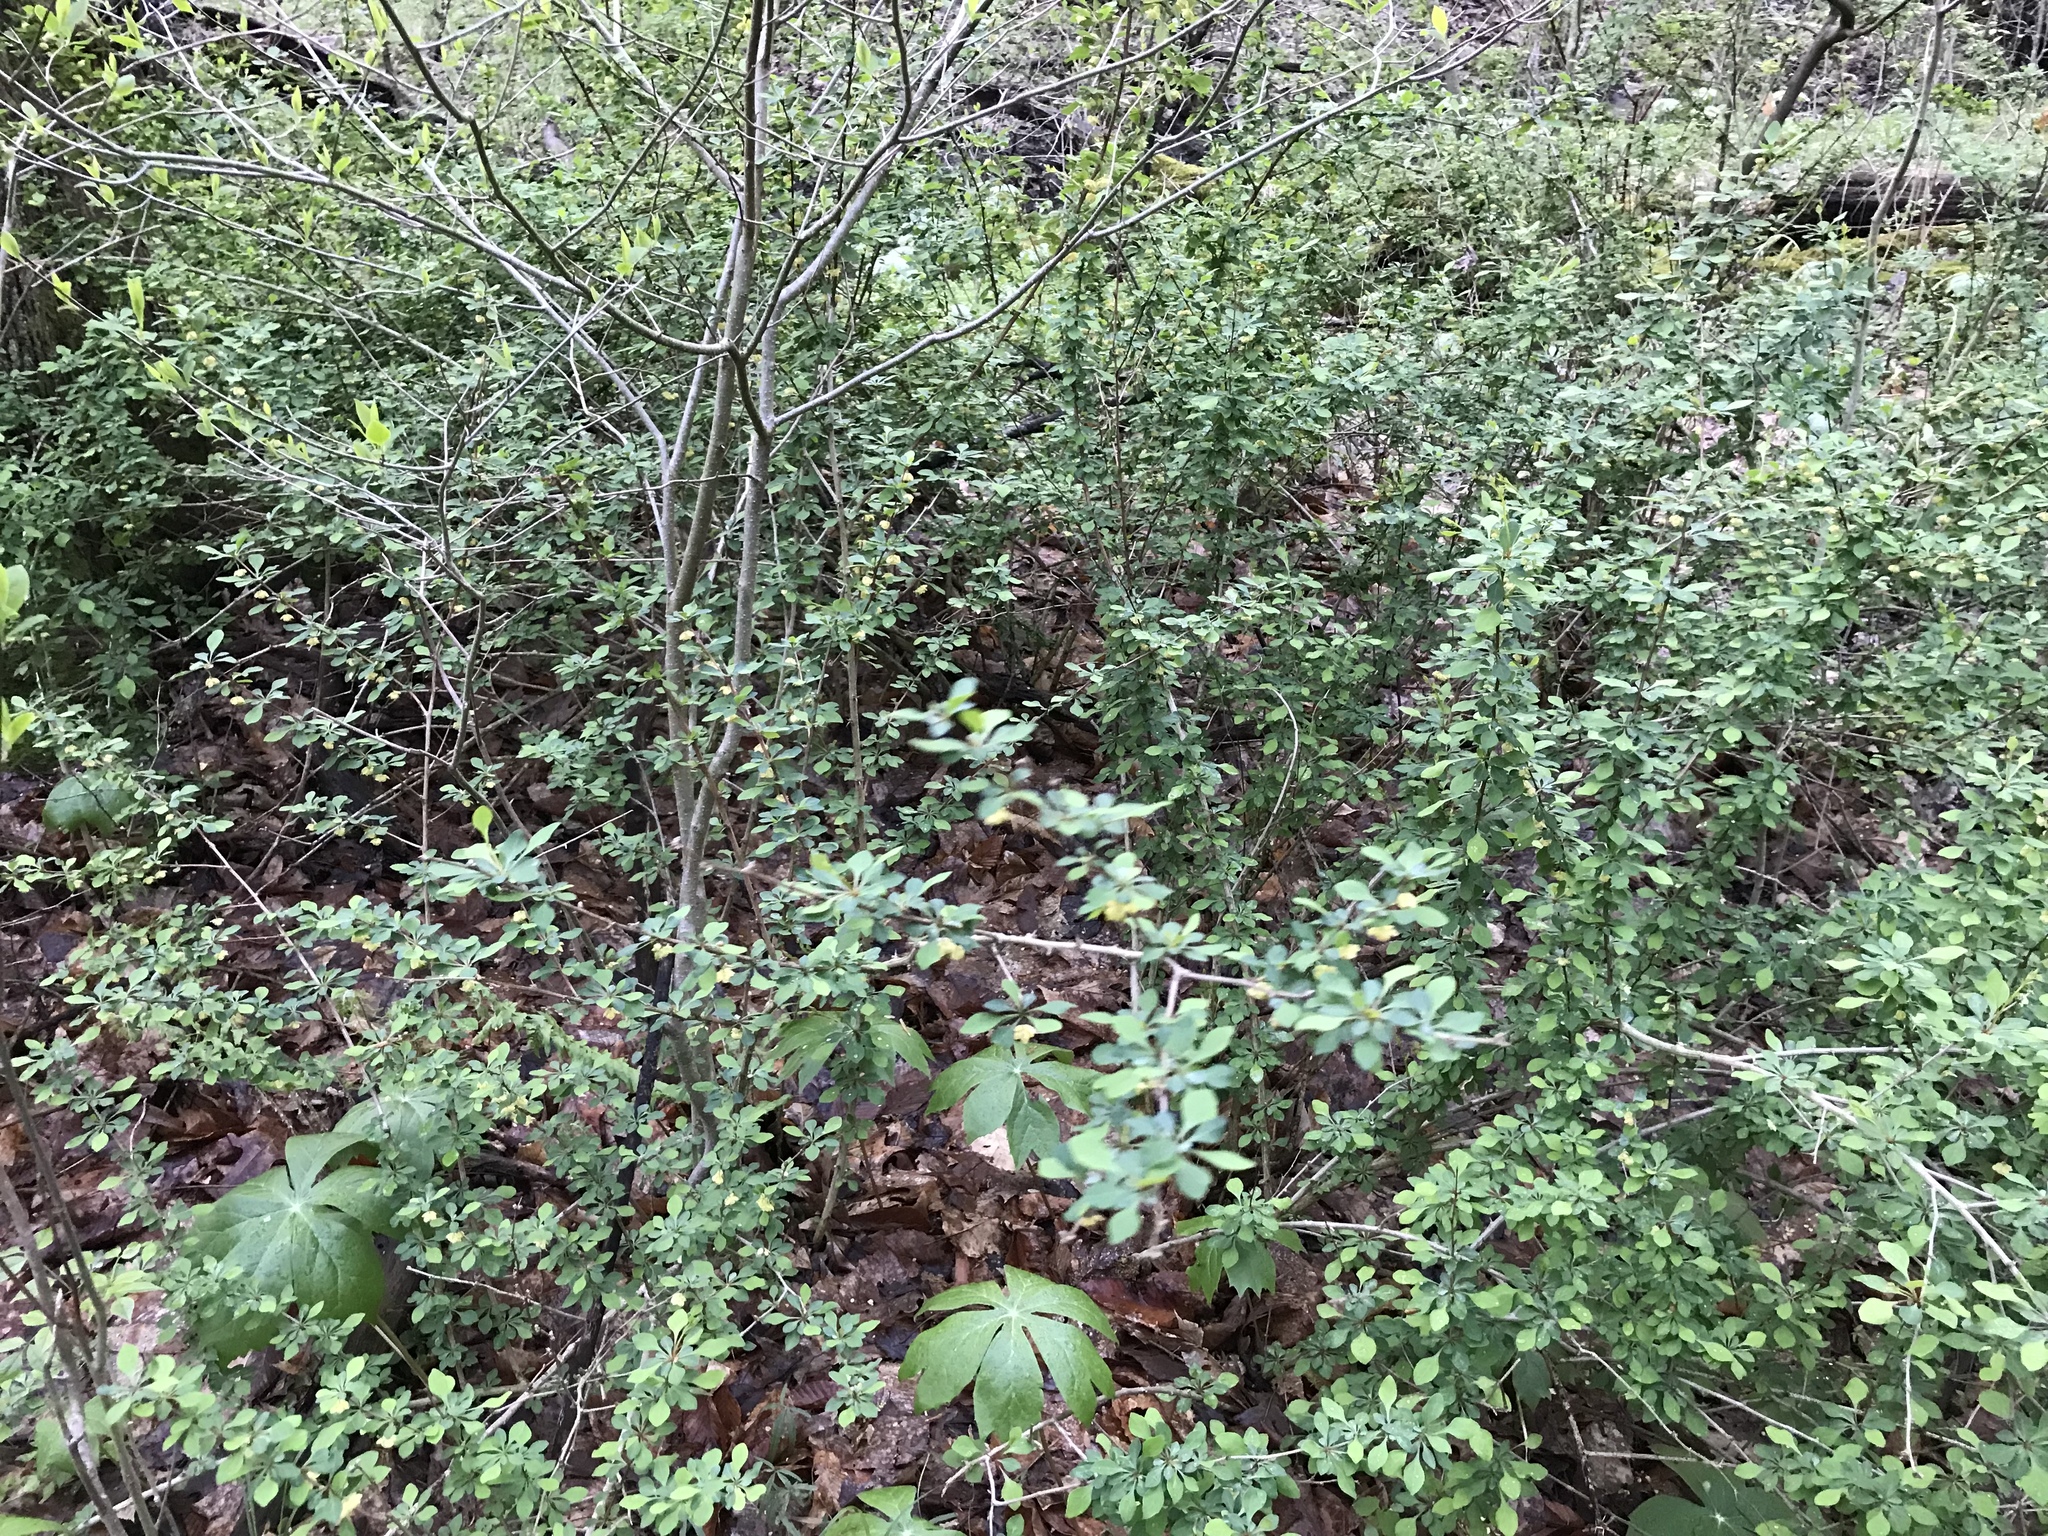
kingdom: Plantae
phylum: Tracheophyta
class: Magnoliopsida
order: Ranunculales
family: Berberidaceae
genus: Berberis
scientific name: Berberis thunbergii
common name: Japanese barberry
